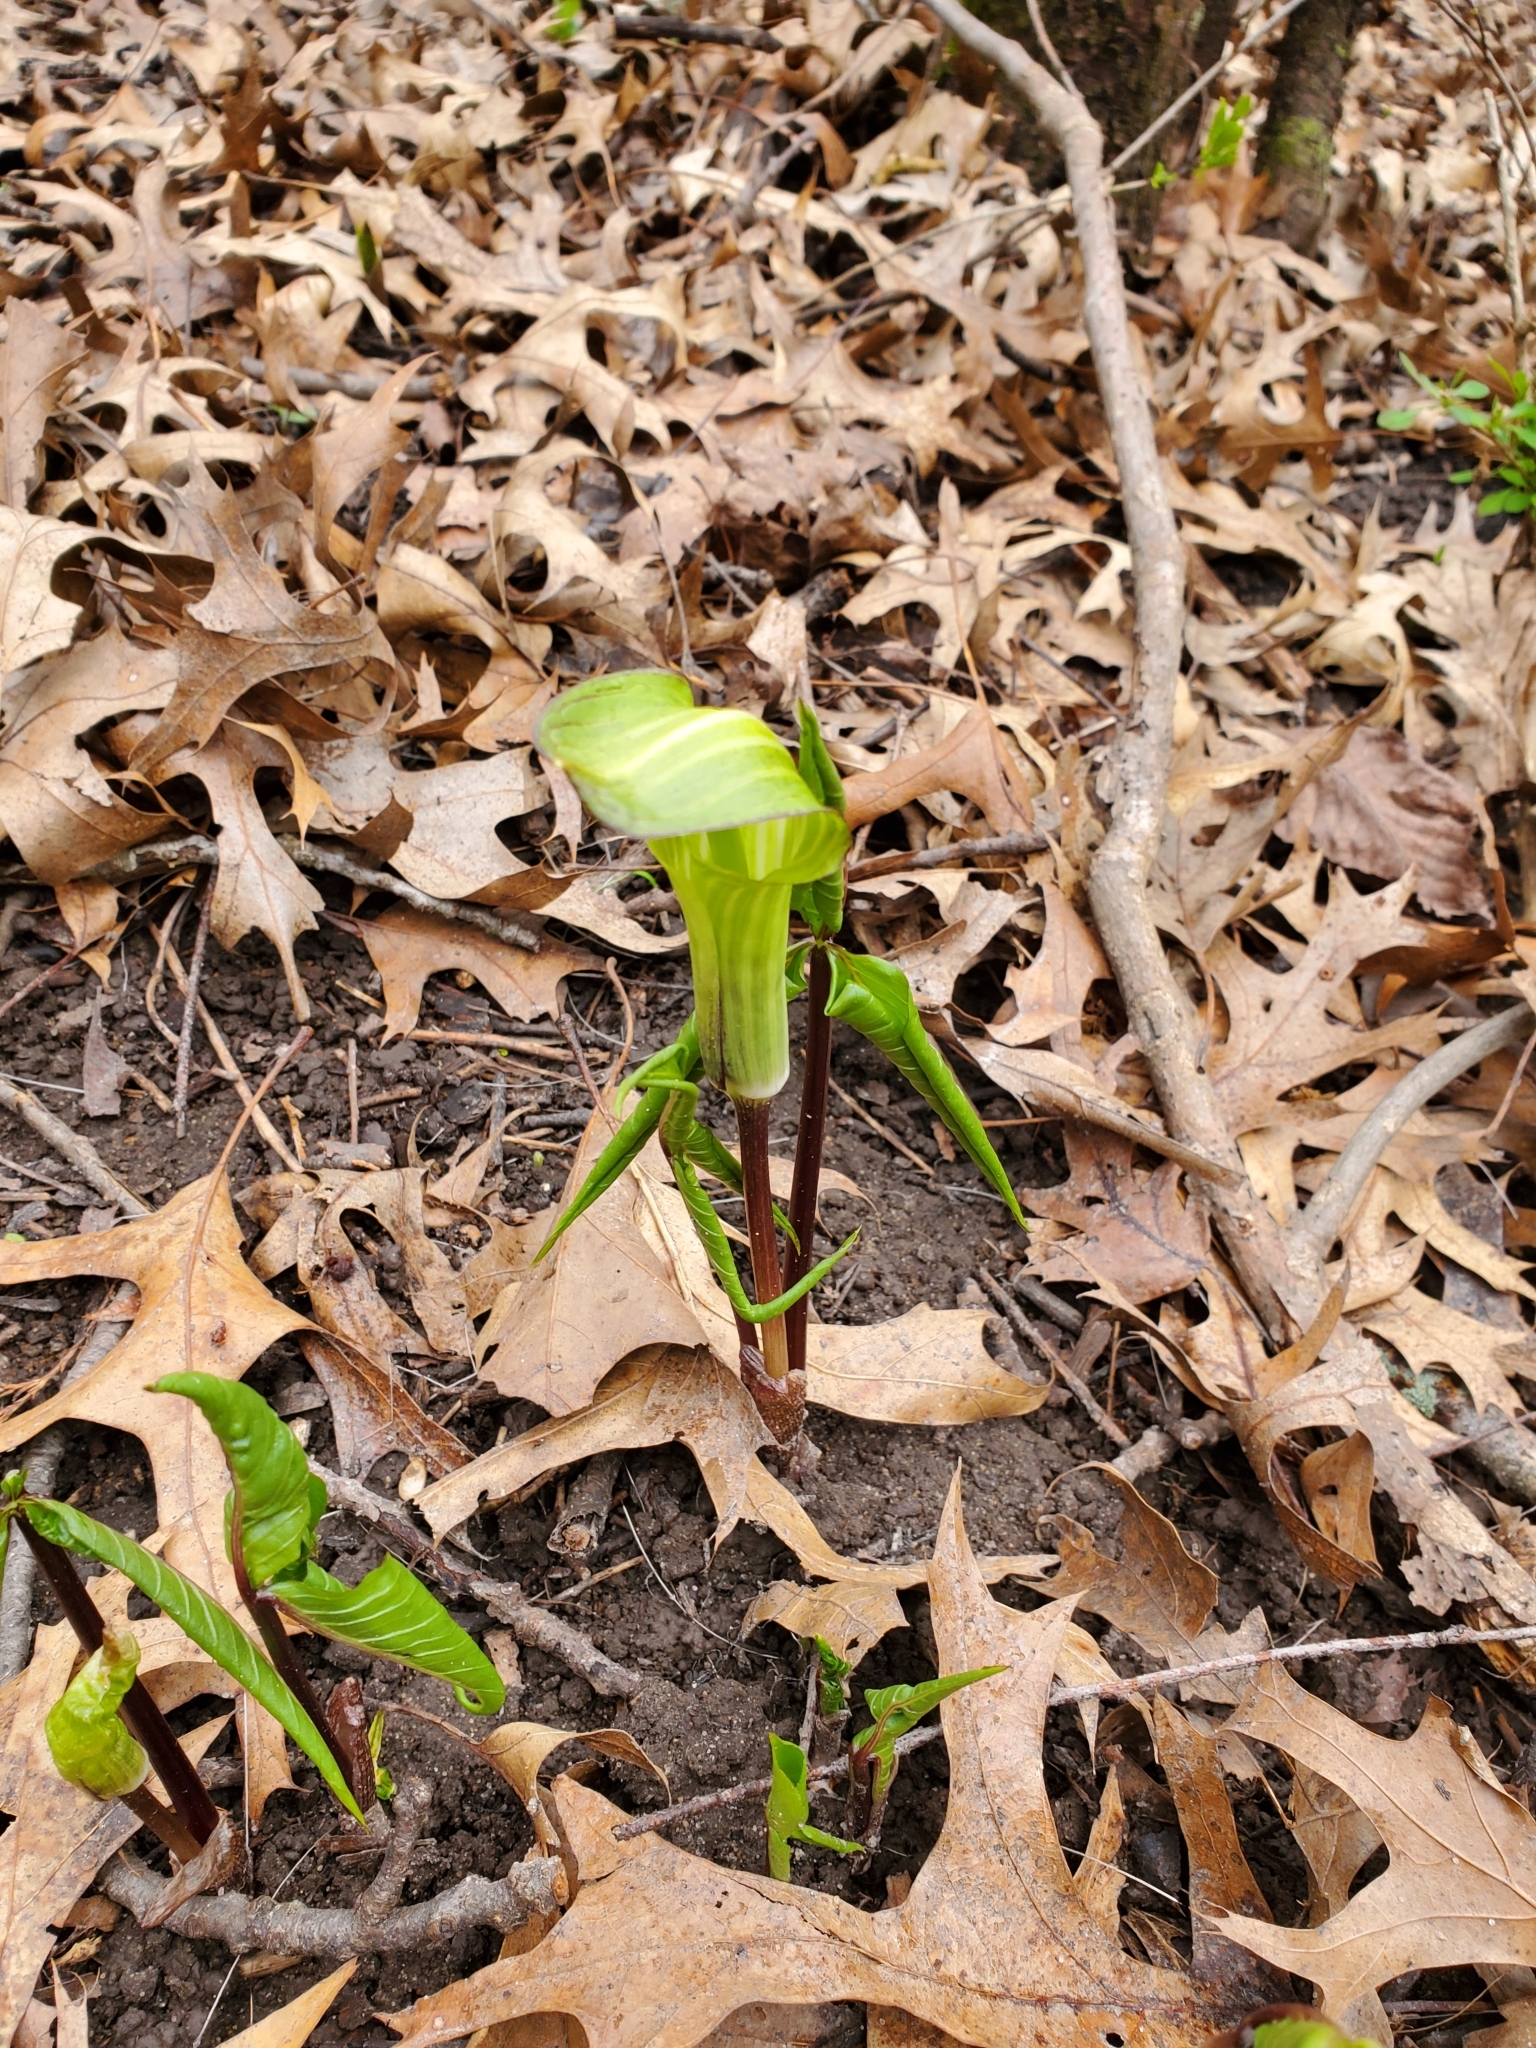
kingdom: Plantae
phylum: Tracheophyta
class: Liliopsida
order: Alismatales
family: Araceae
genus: Arisaema
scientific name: Arisaema triphyllum
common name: Jack-in-the-pulpit
